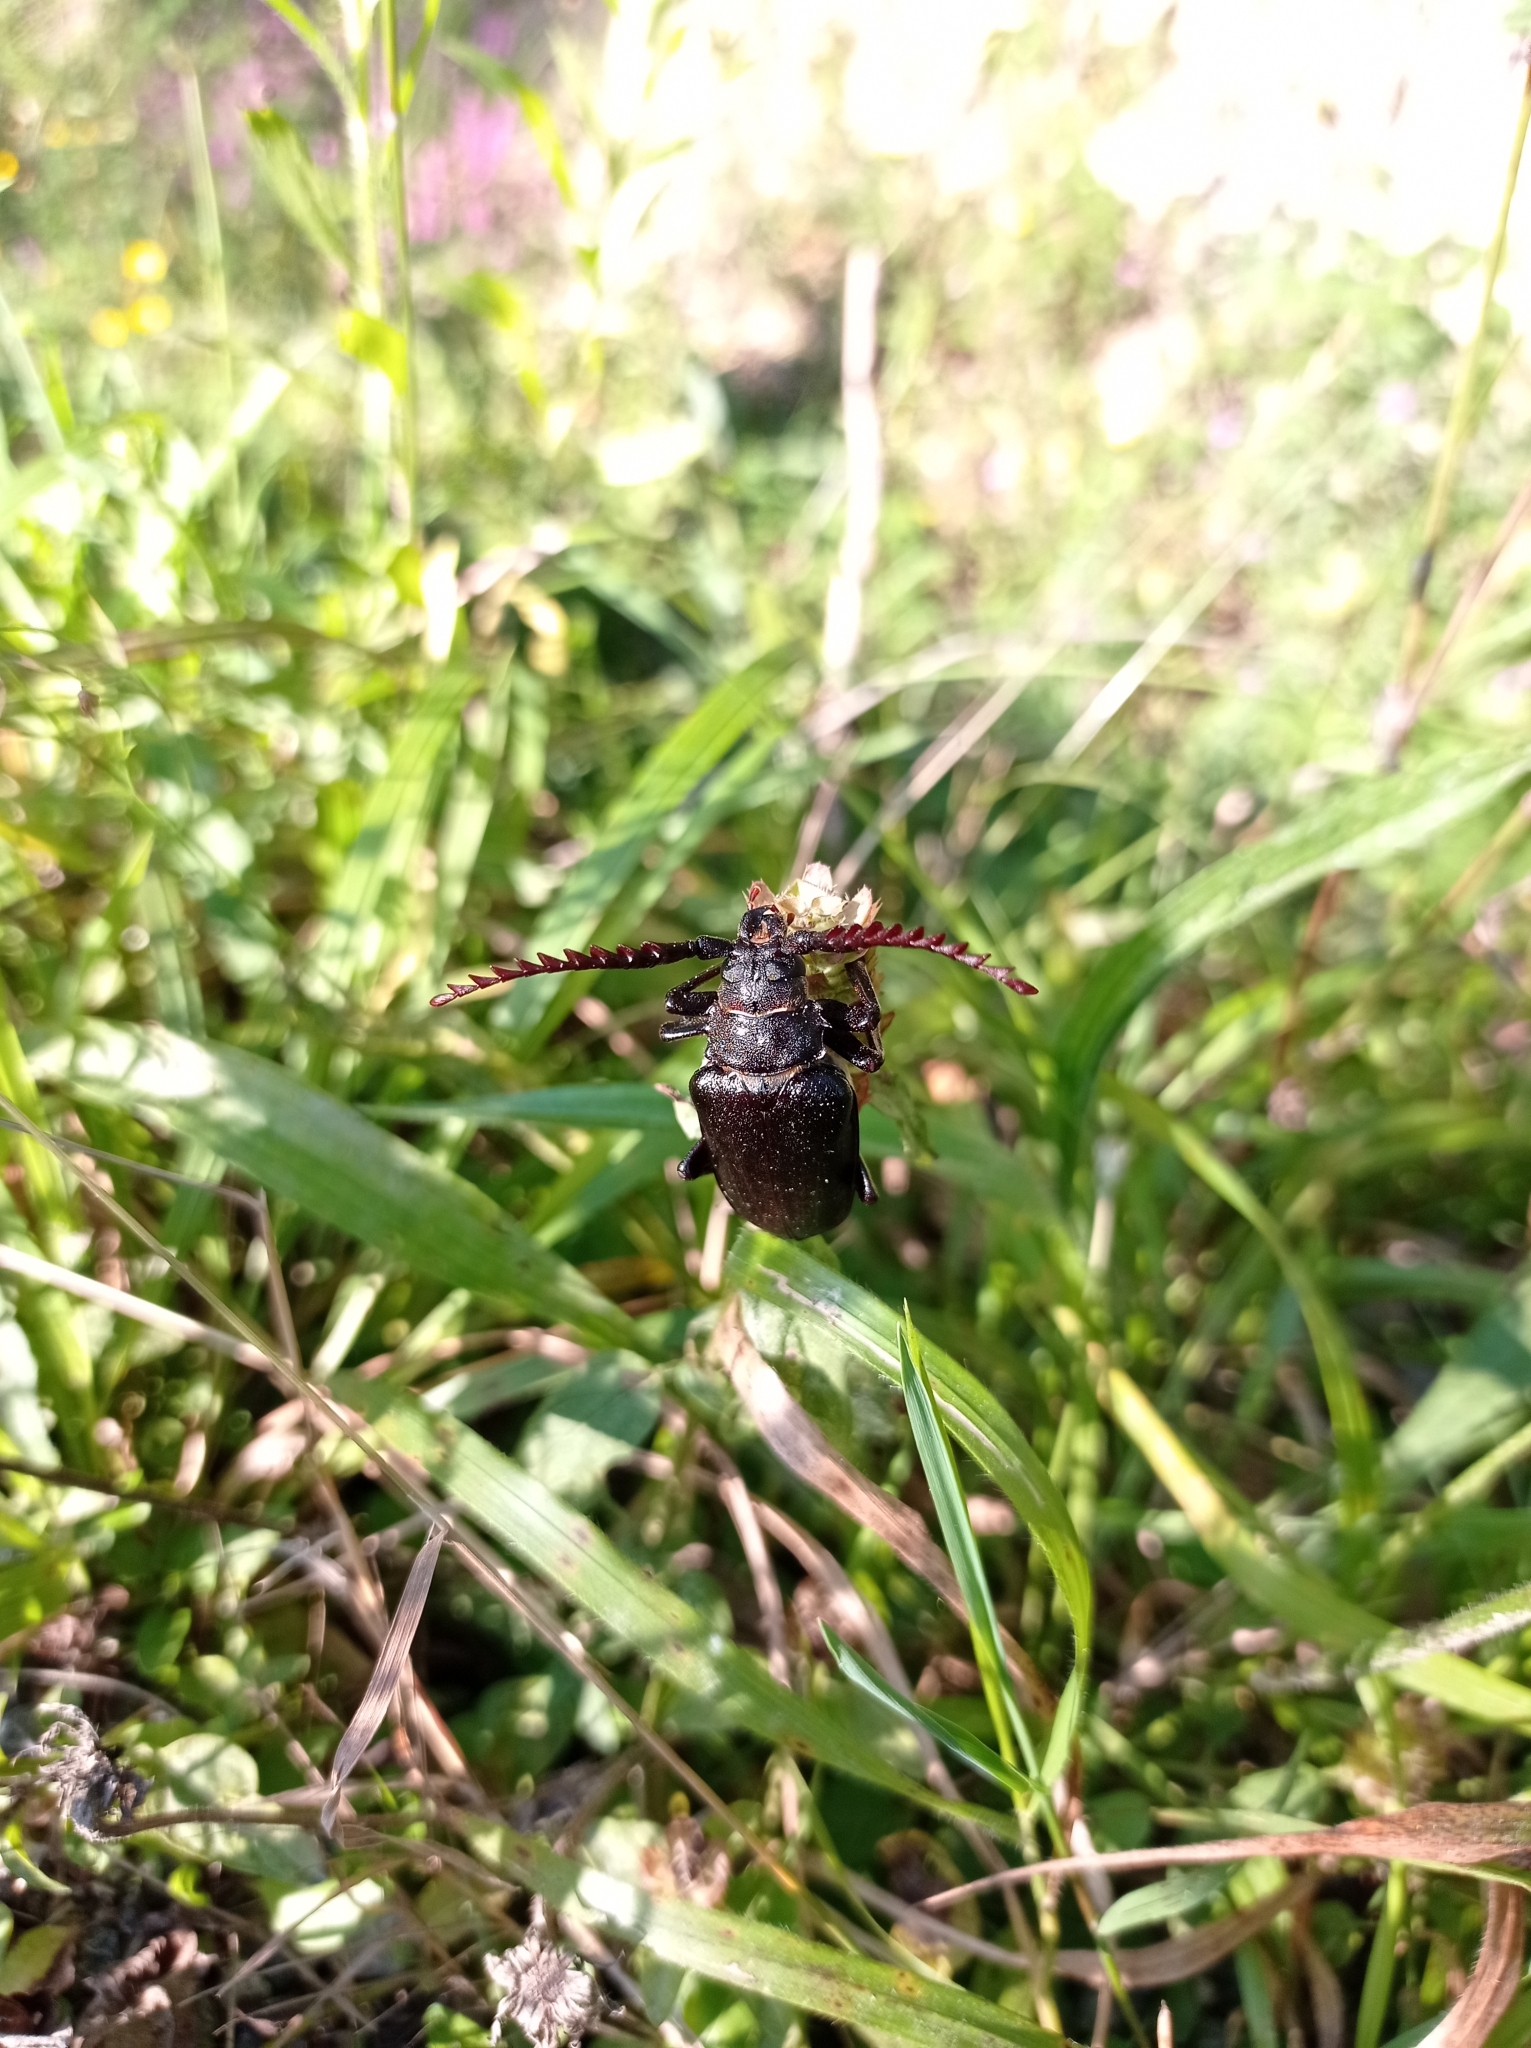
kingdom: Animalia
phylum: Arthropoda
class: Insecta
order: Coleoptera
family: Cerambycidae
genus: Prionus
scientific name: Prionus coriarius
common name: Tanner beetle
